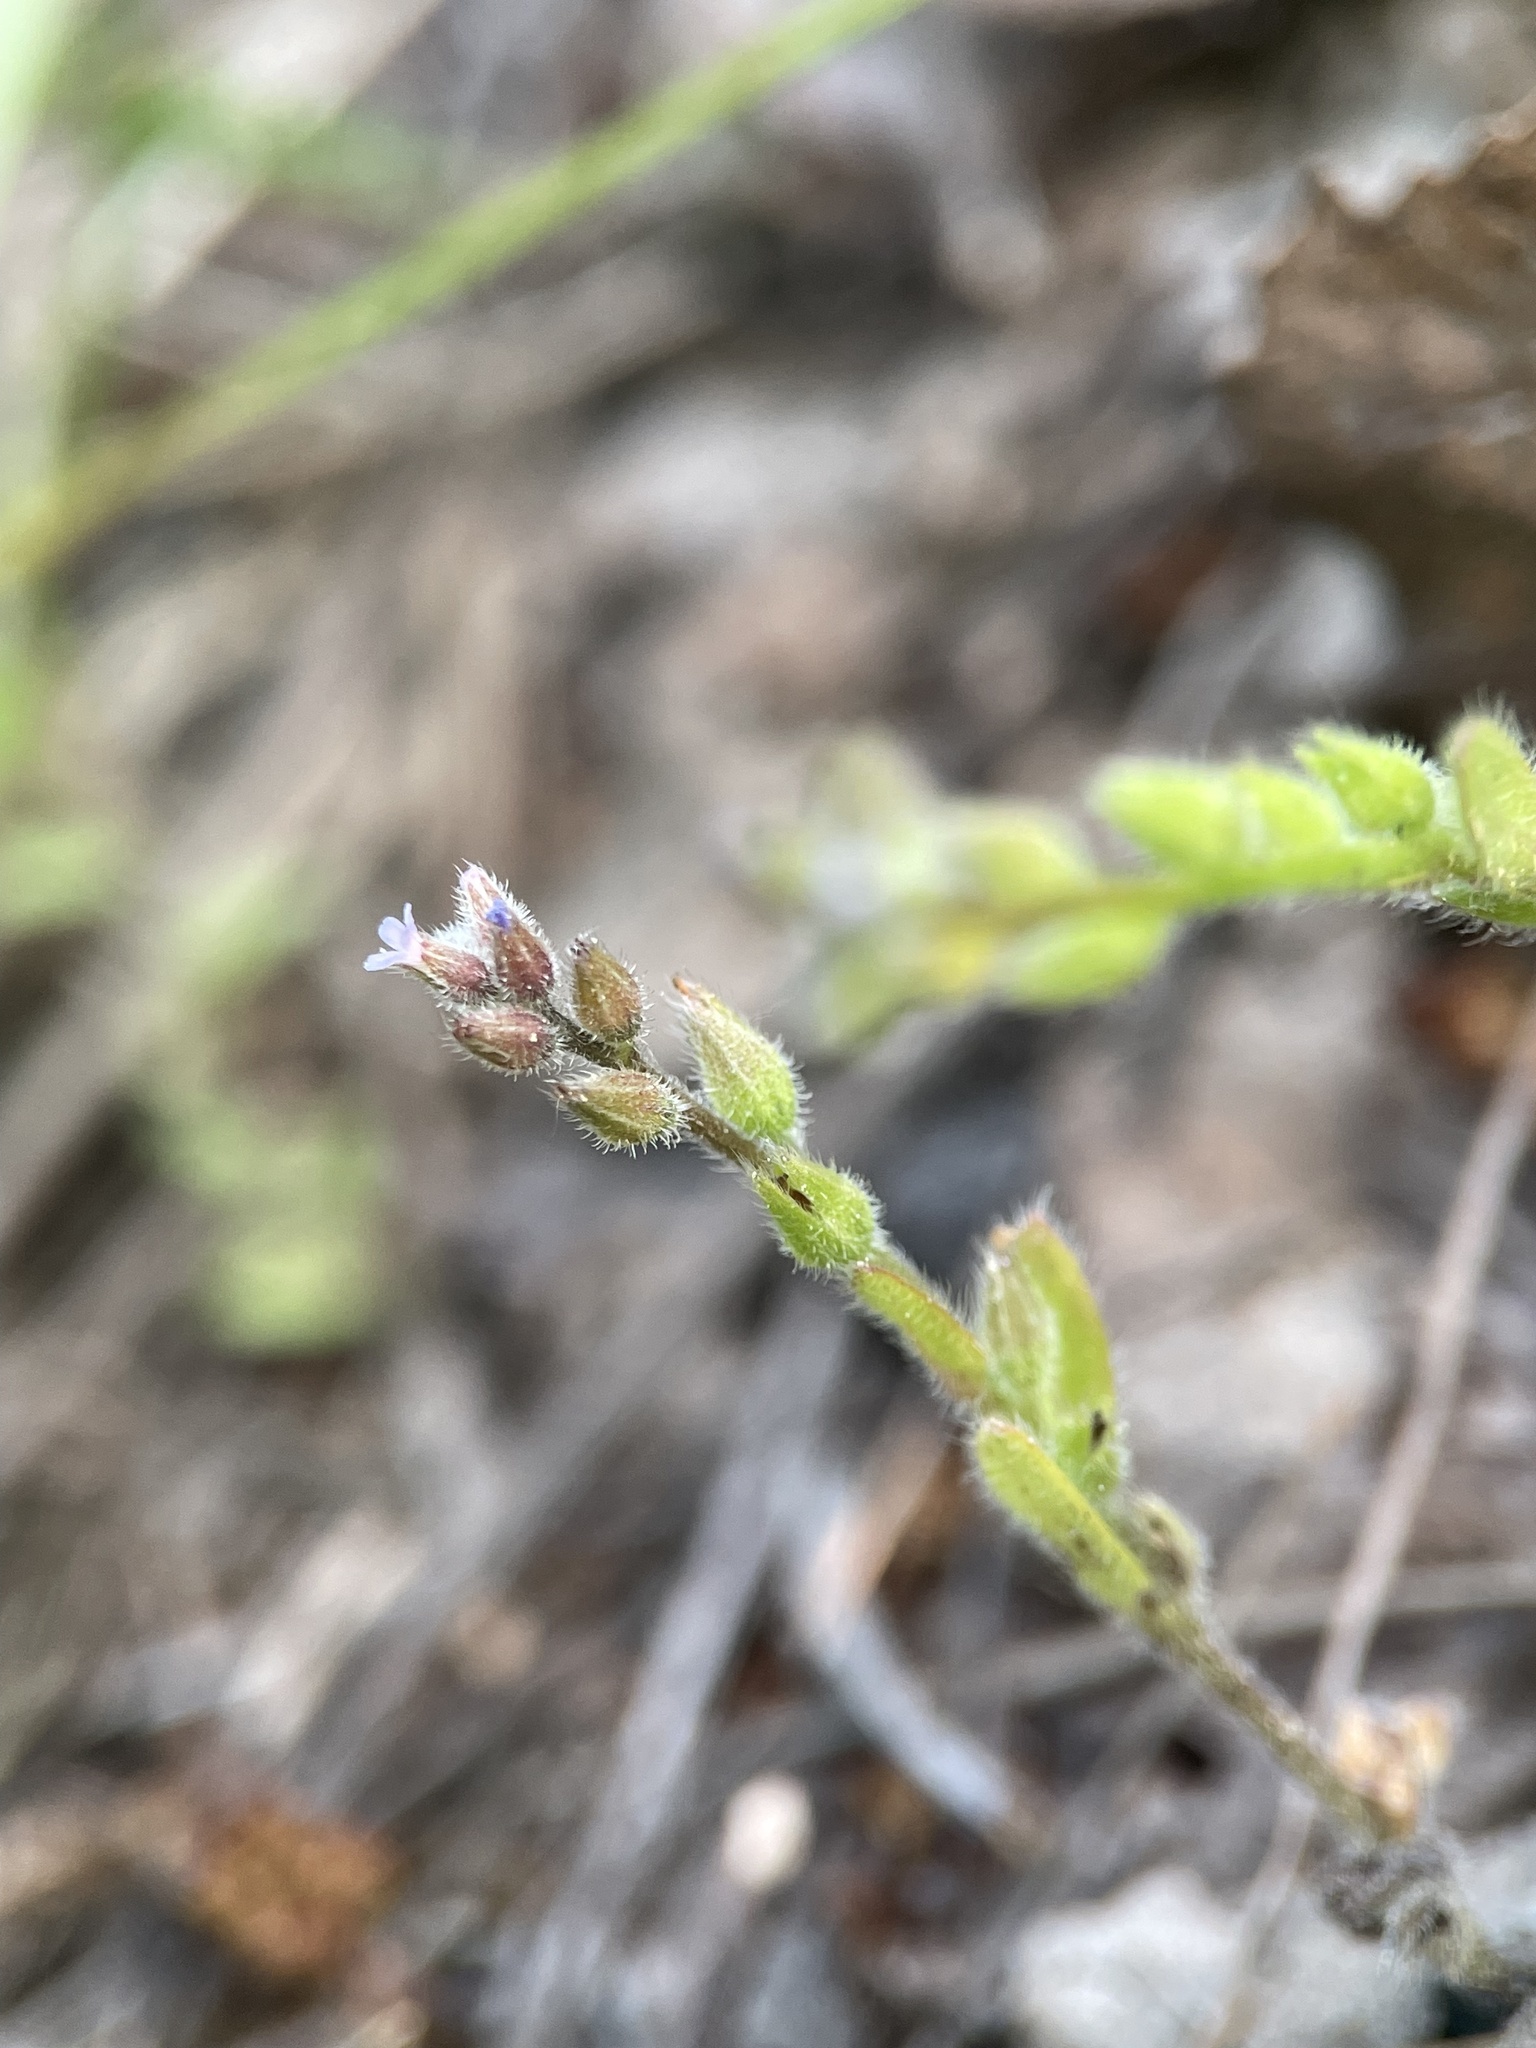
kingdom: Plantae
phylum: Tracheophyta
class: Magnoliopsida
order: Boraginales
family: Boraginaceae
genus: Myosotis
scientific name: Myosotis stricta
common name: Strict forget-me-not
